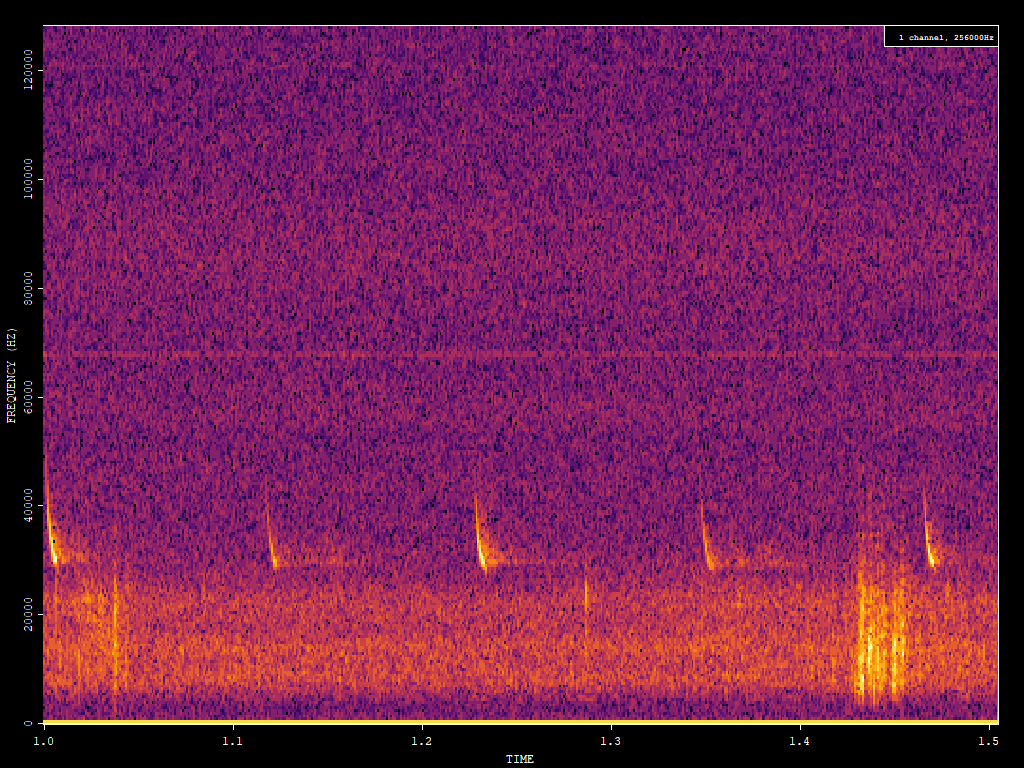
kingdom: Animalia
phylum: Chordata
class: Mammalia
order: Chiroptera
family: Vespertilionidae
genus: Eptesicus
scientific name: Eptesicus fuscus
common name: Big brown bat
